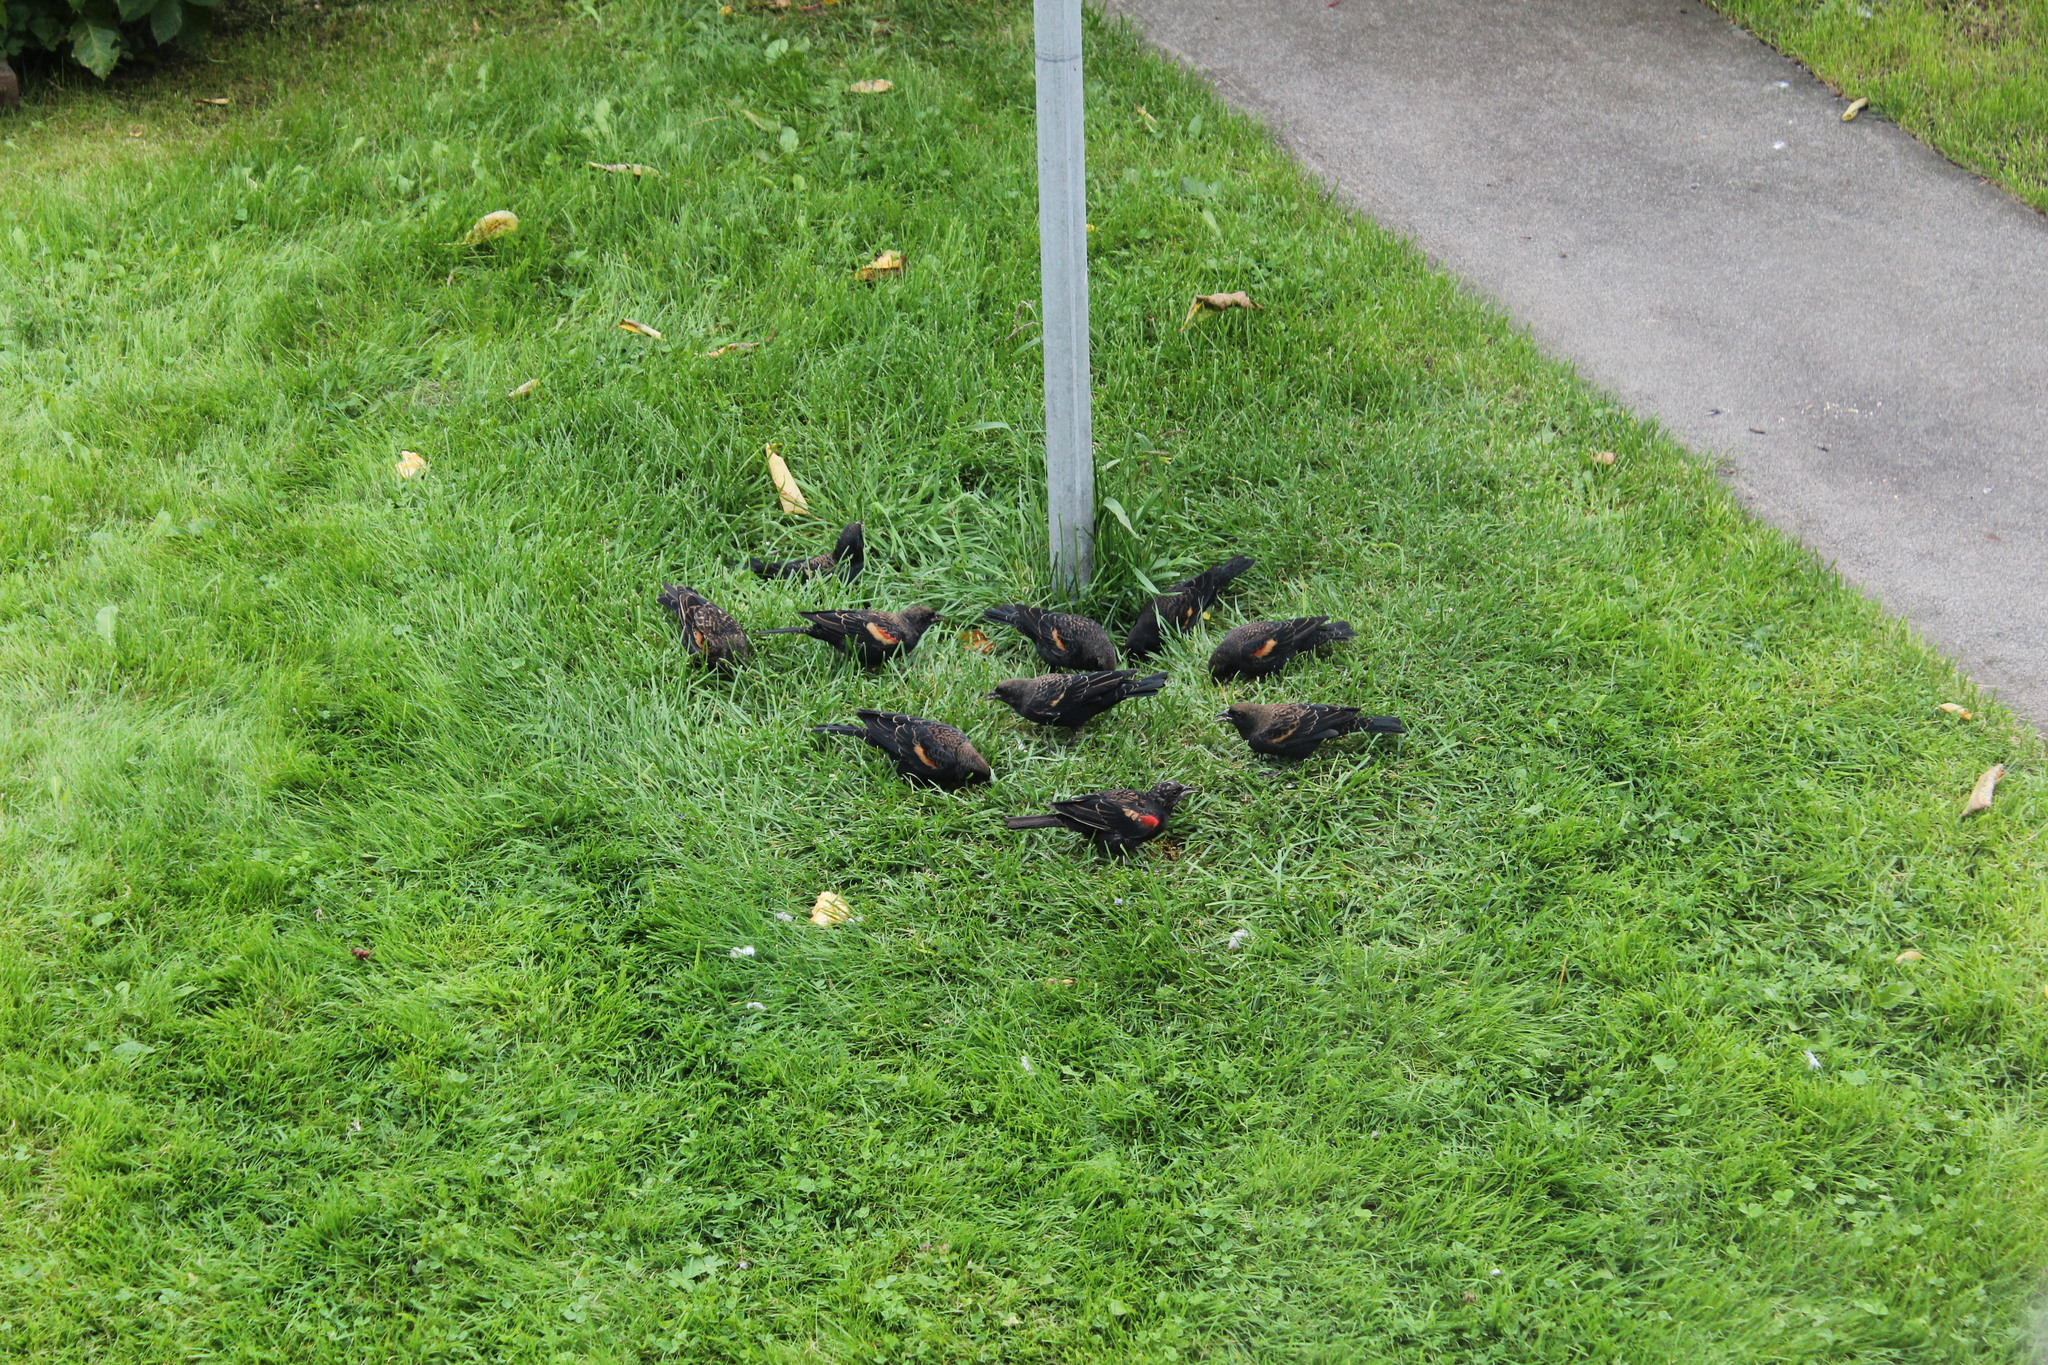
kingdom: Animalia
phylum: Chordata
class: Aves
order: Passeriformes
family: Icteridae
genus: Agelaius
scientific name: Agelaius phoeniceus
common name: Red-winged blackbird
